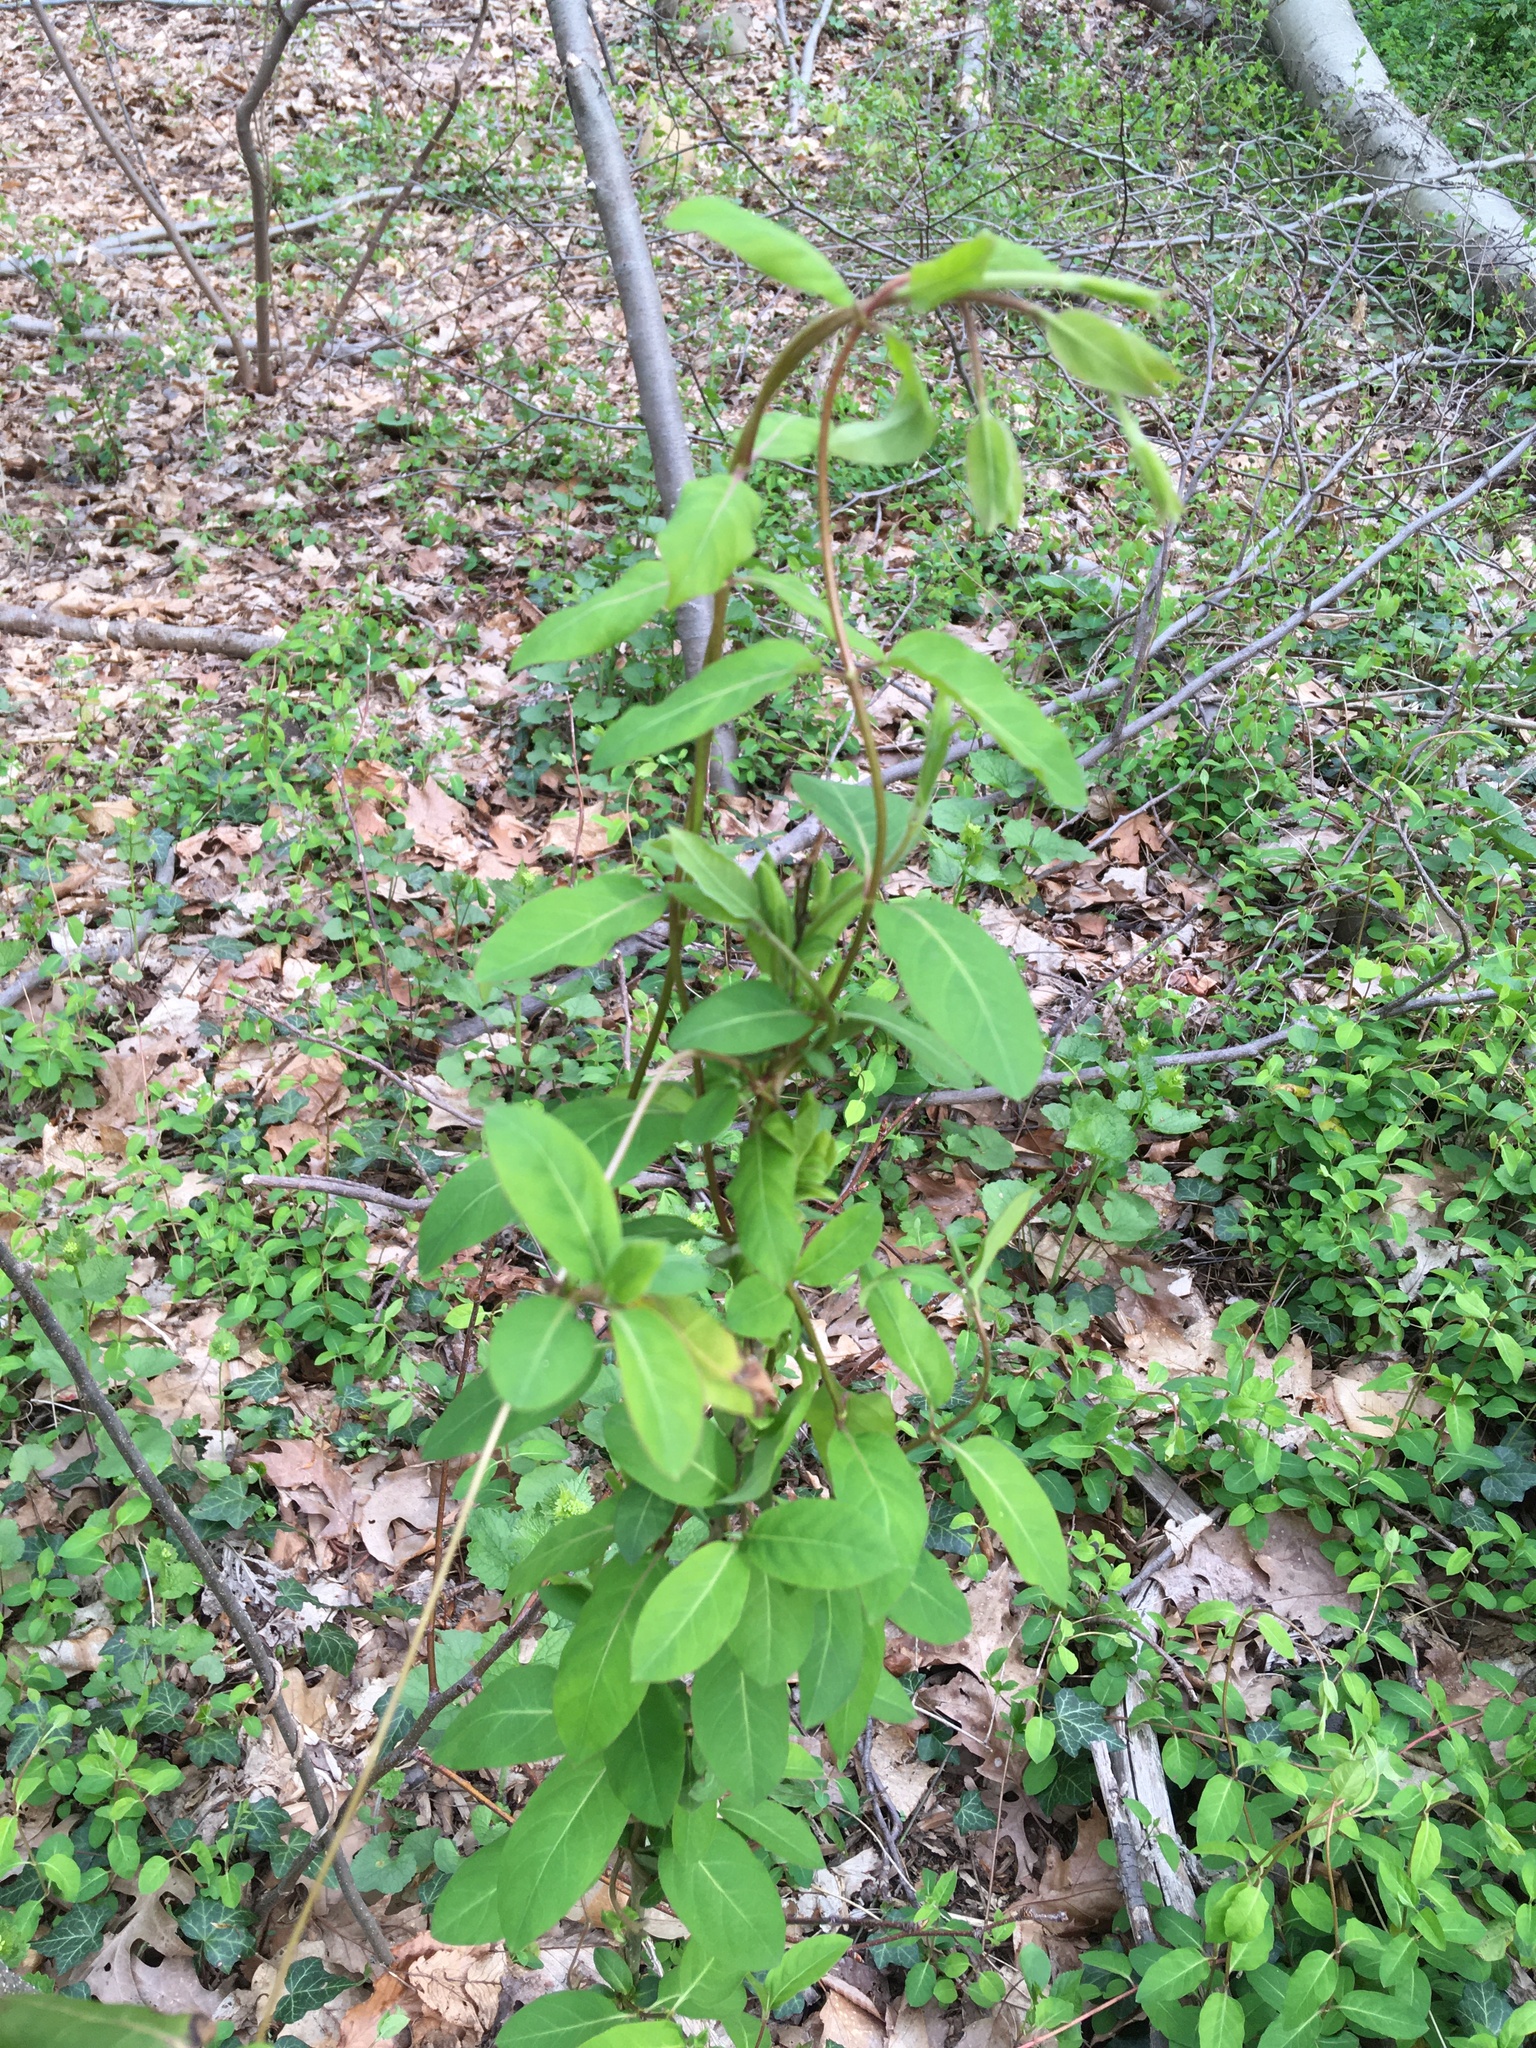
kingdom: Plantae
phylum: Tracheophyta
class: Magnoliopsida
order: Dipsacales
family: Caprifoliaceae
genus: Lonicera
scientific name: Lonicera japonica
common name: Japanese honeysuckle
